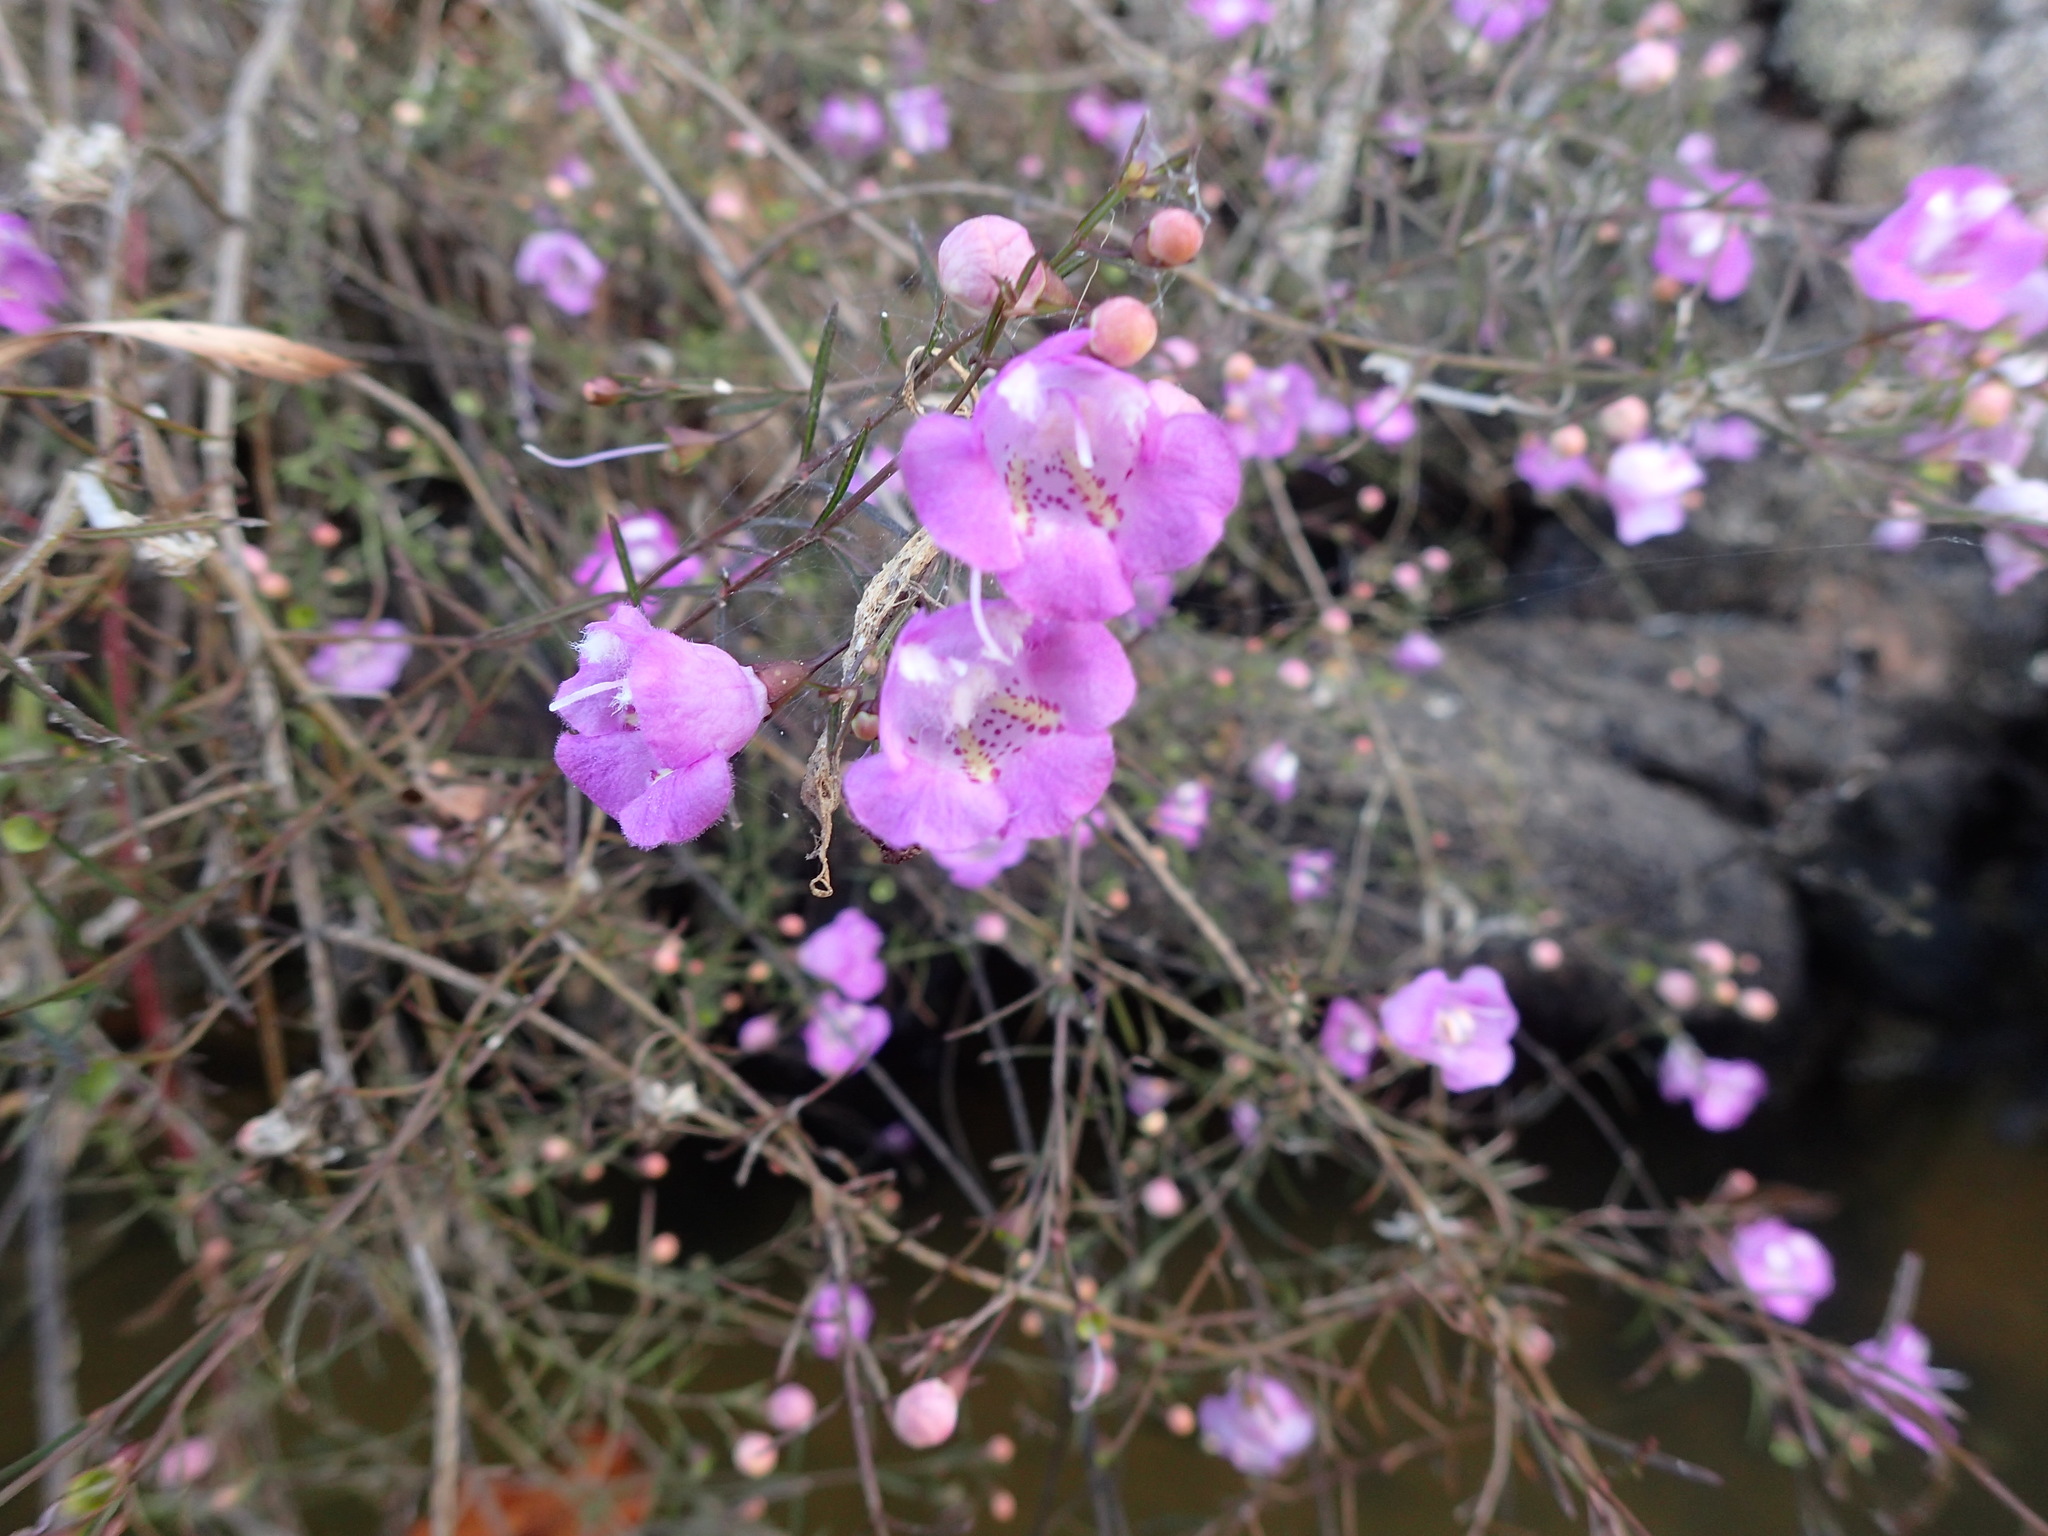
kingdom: Plantae
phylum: Tracheophyta
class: Magnoliopsida
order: Lamiales
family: Orobanchaceae
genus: Agalinis
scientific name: Agalinis purpurea
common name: Purple false foxglove
